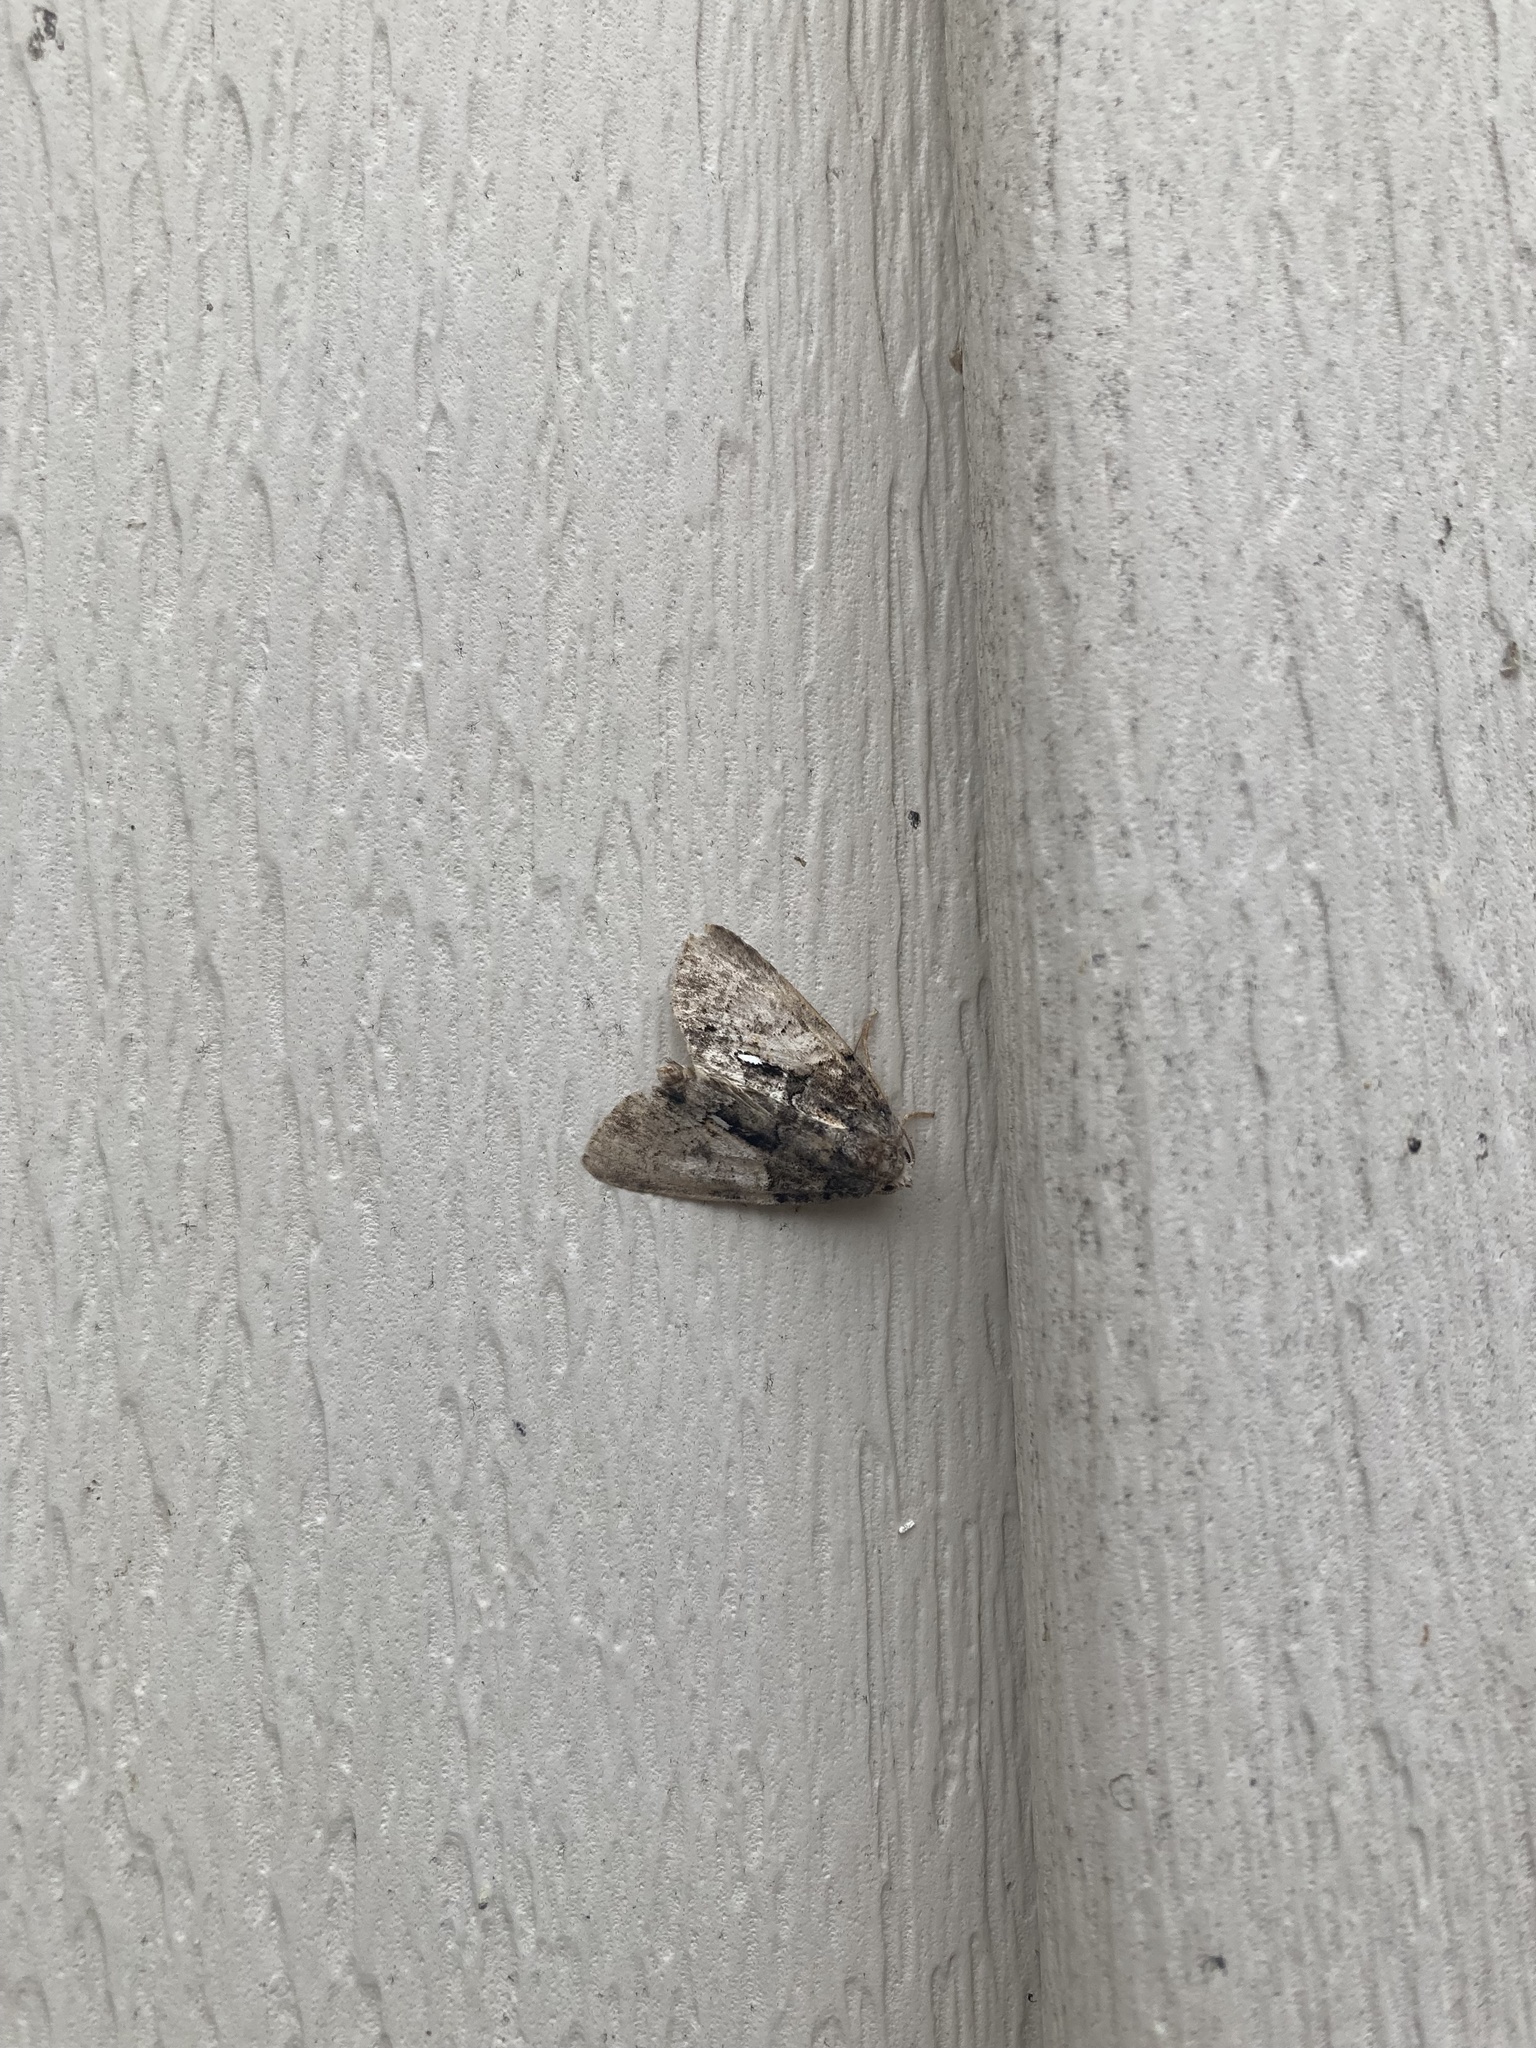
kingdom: Animalia
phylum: Arthropoda
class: Insecta
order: Lepidoptera
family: Noctuidae
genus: Chytonix
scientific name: Chytonix palliatricula
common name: Cloaked marvel
